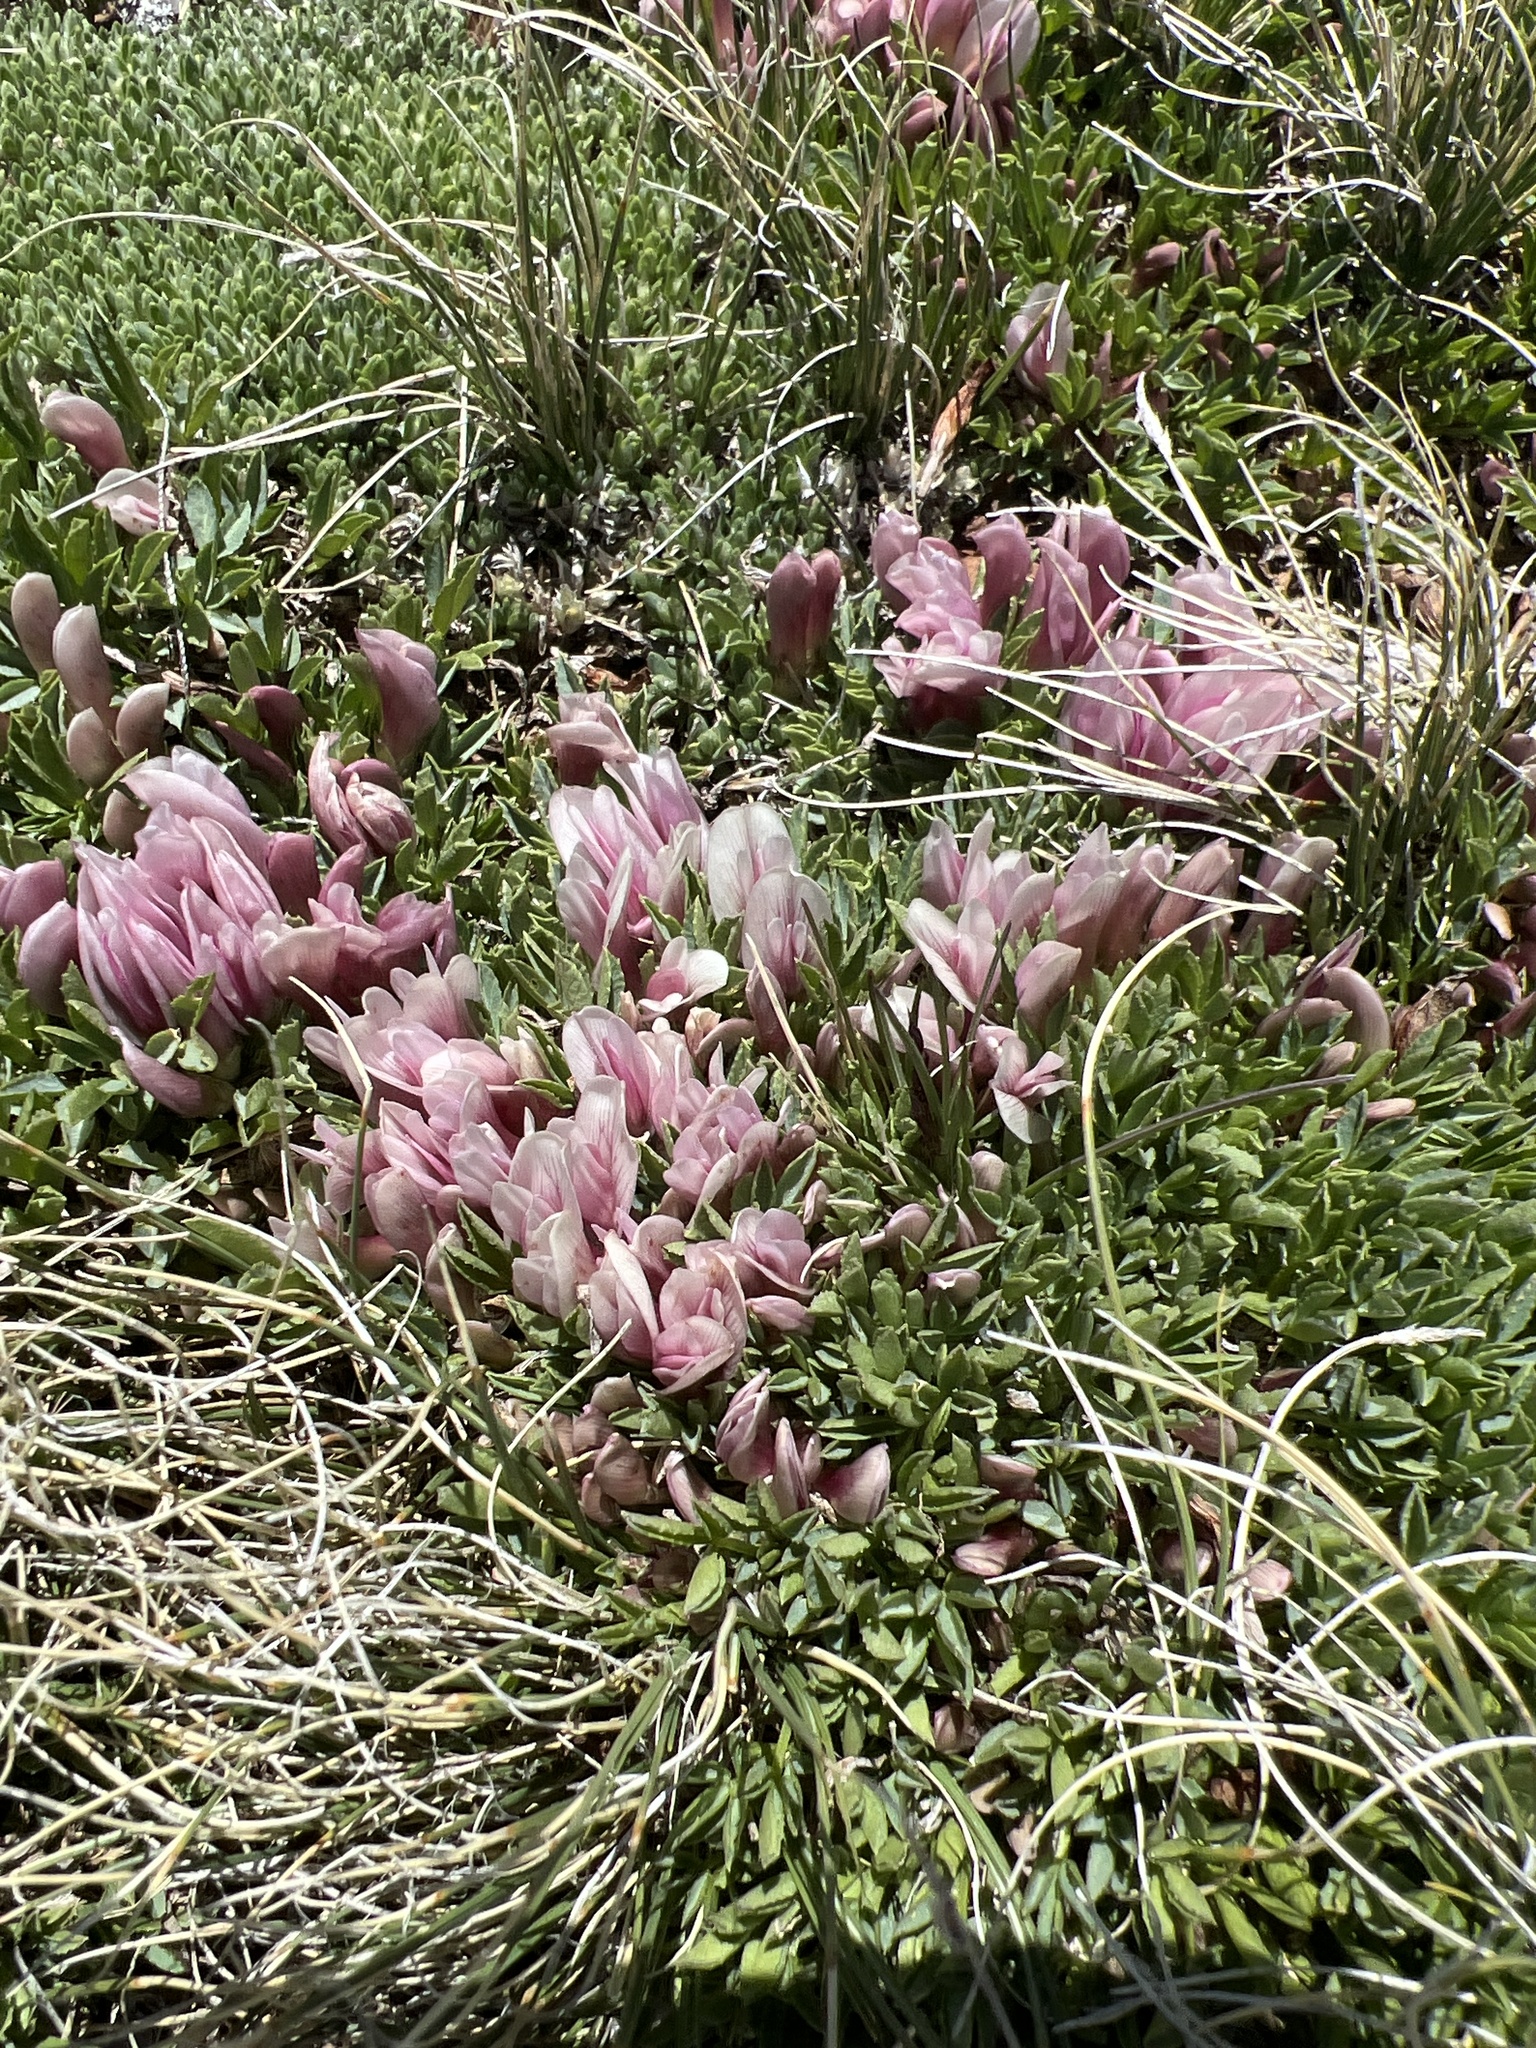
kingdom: Plantae
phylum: Tracheophyta
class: Magnoliopsida
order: Fabales
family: Fabaceae
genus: Trifolium
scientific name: Trifolium nanum
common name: Tundra clover
